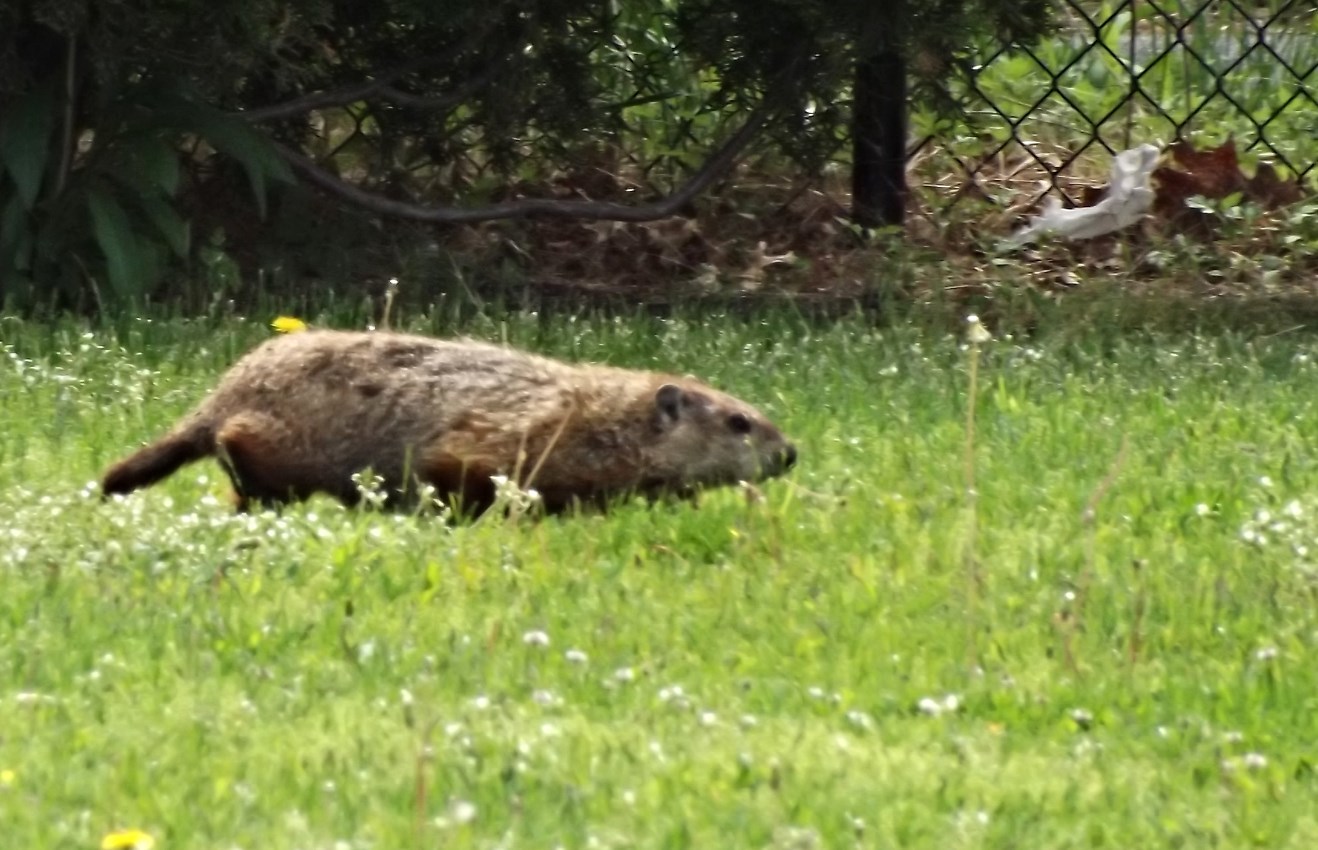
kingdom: Animalia
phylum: Chordata
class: Mammalia
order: Rodentia
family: Sciuridae
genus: Marmota
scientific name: Marmota monax
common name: Groundhog
